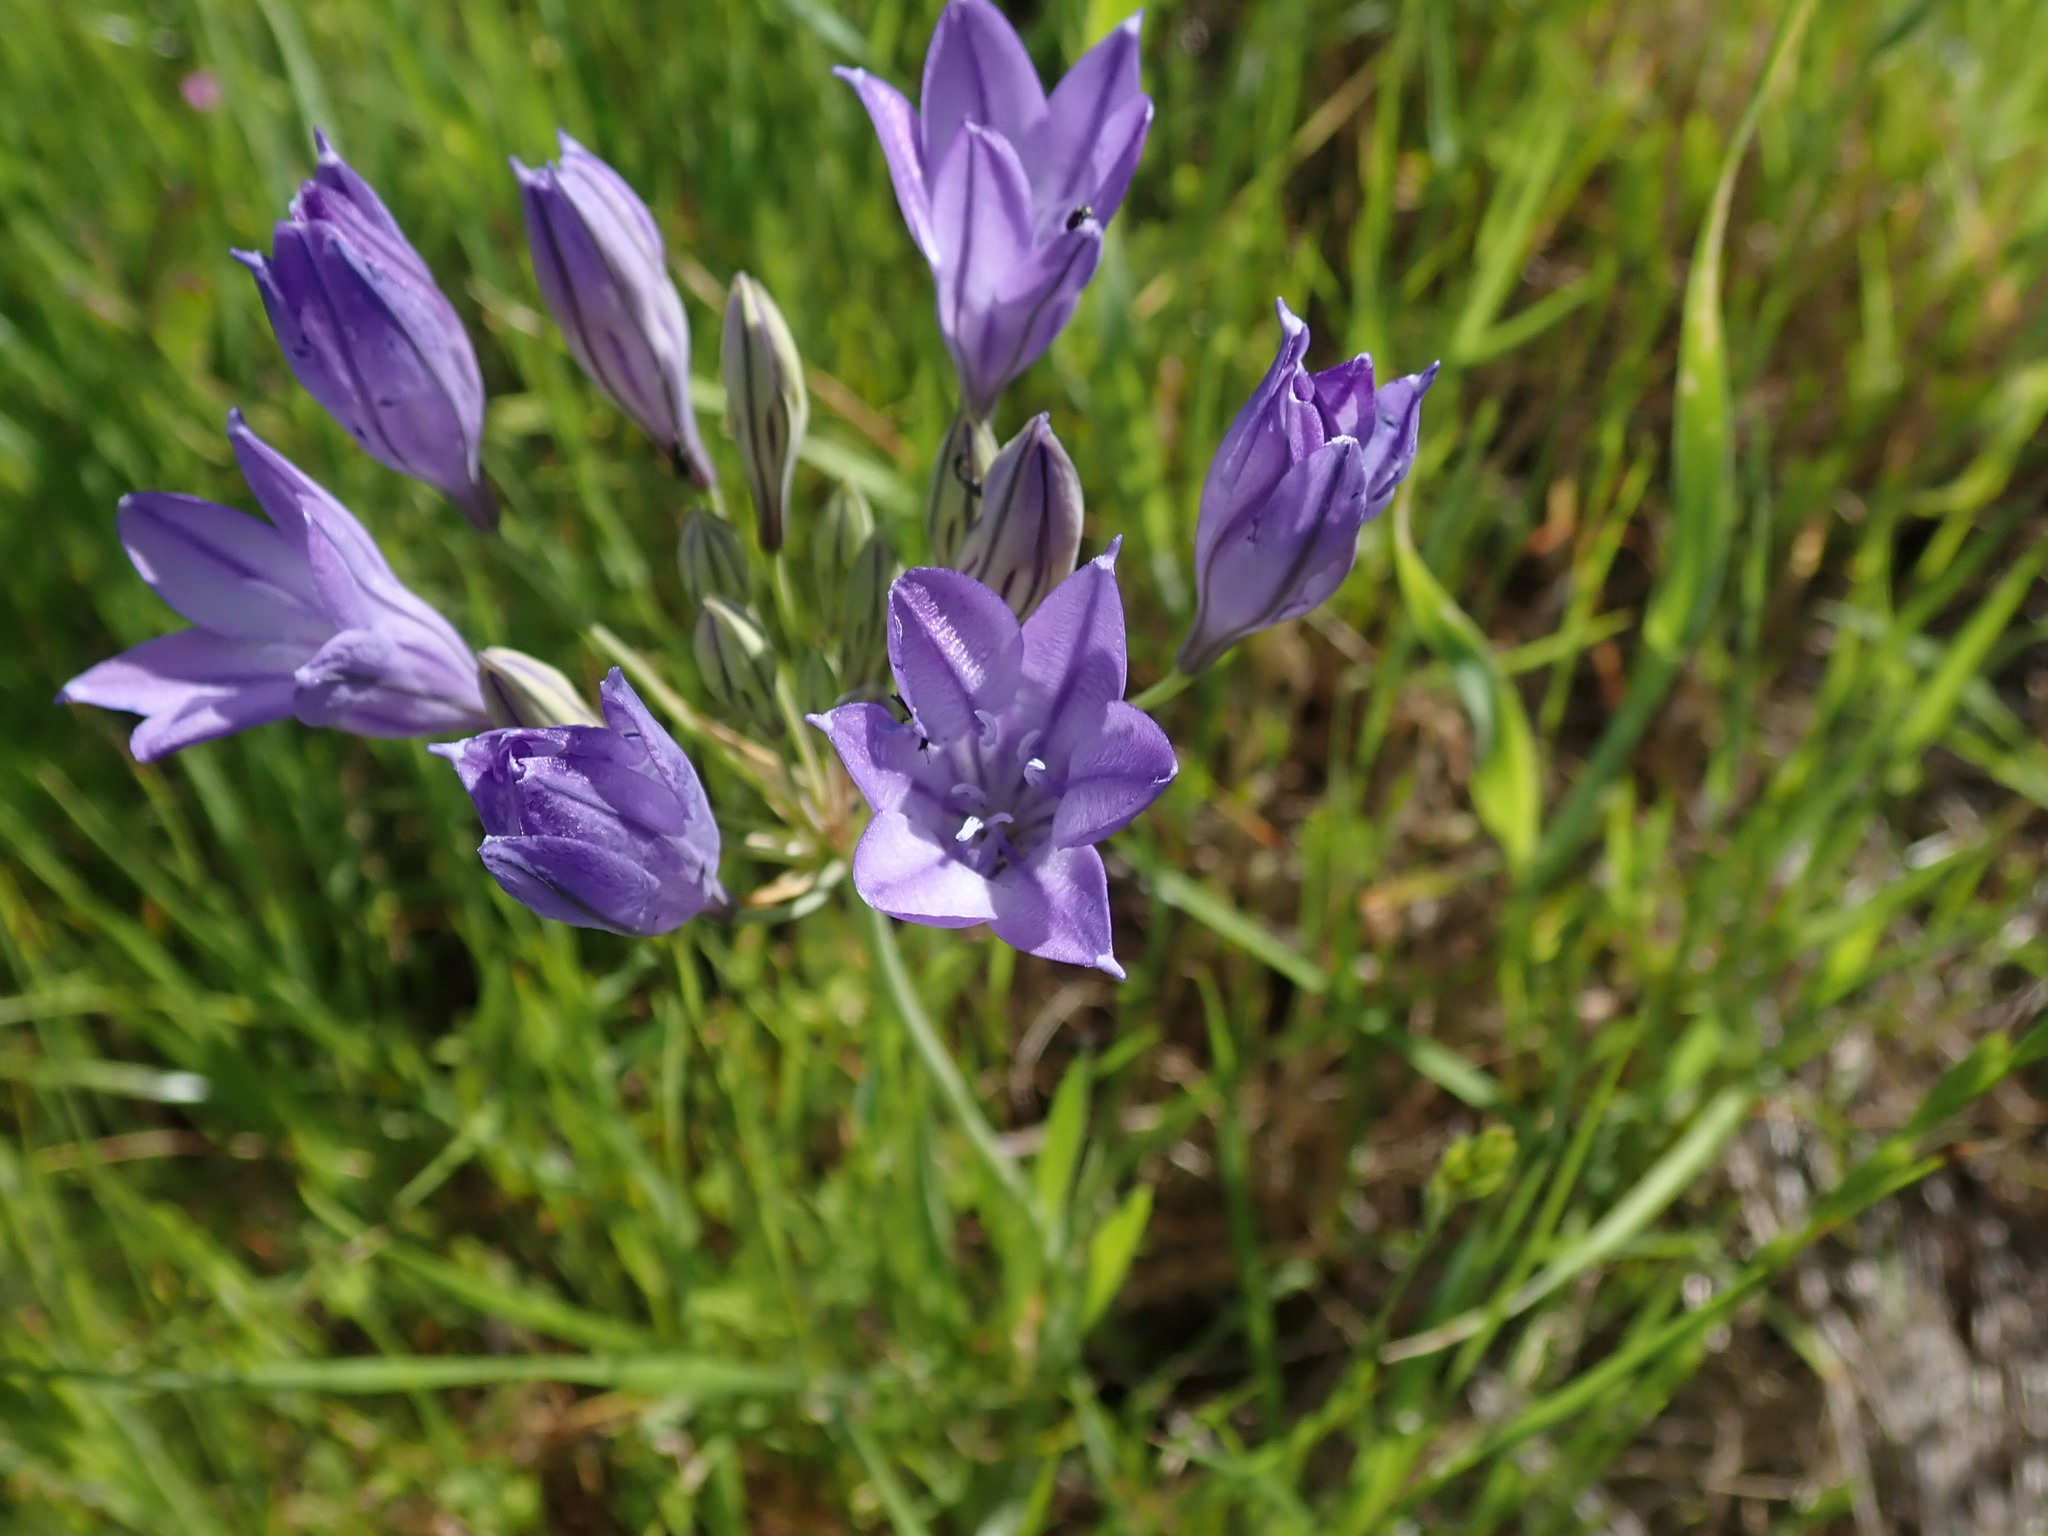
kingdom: Plantae
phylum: Tracheophyta
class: Liliopsida
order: Asparagales
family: Asparagaceae
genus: Triteleia
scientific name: Triteleia laxa
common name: Triplet-lily
